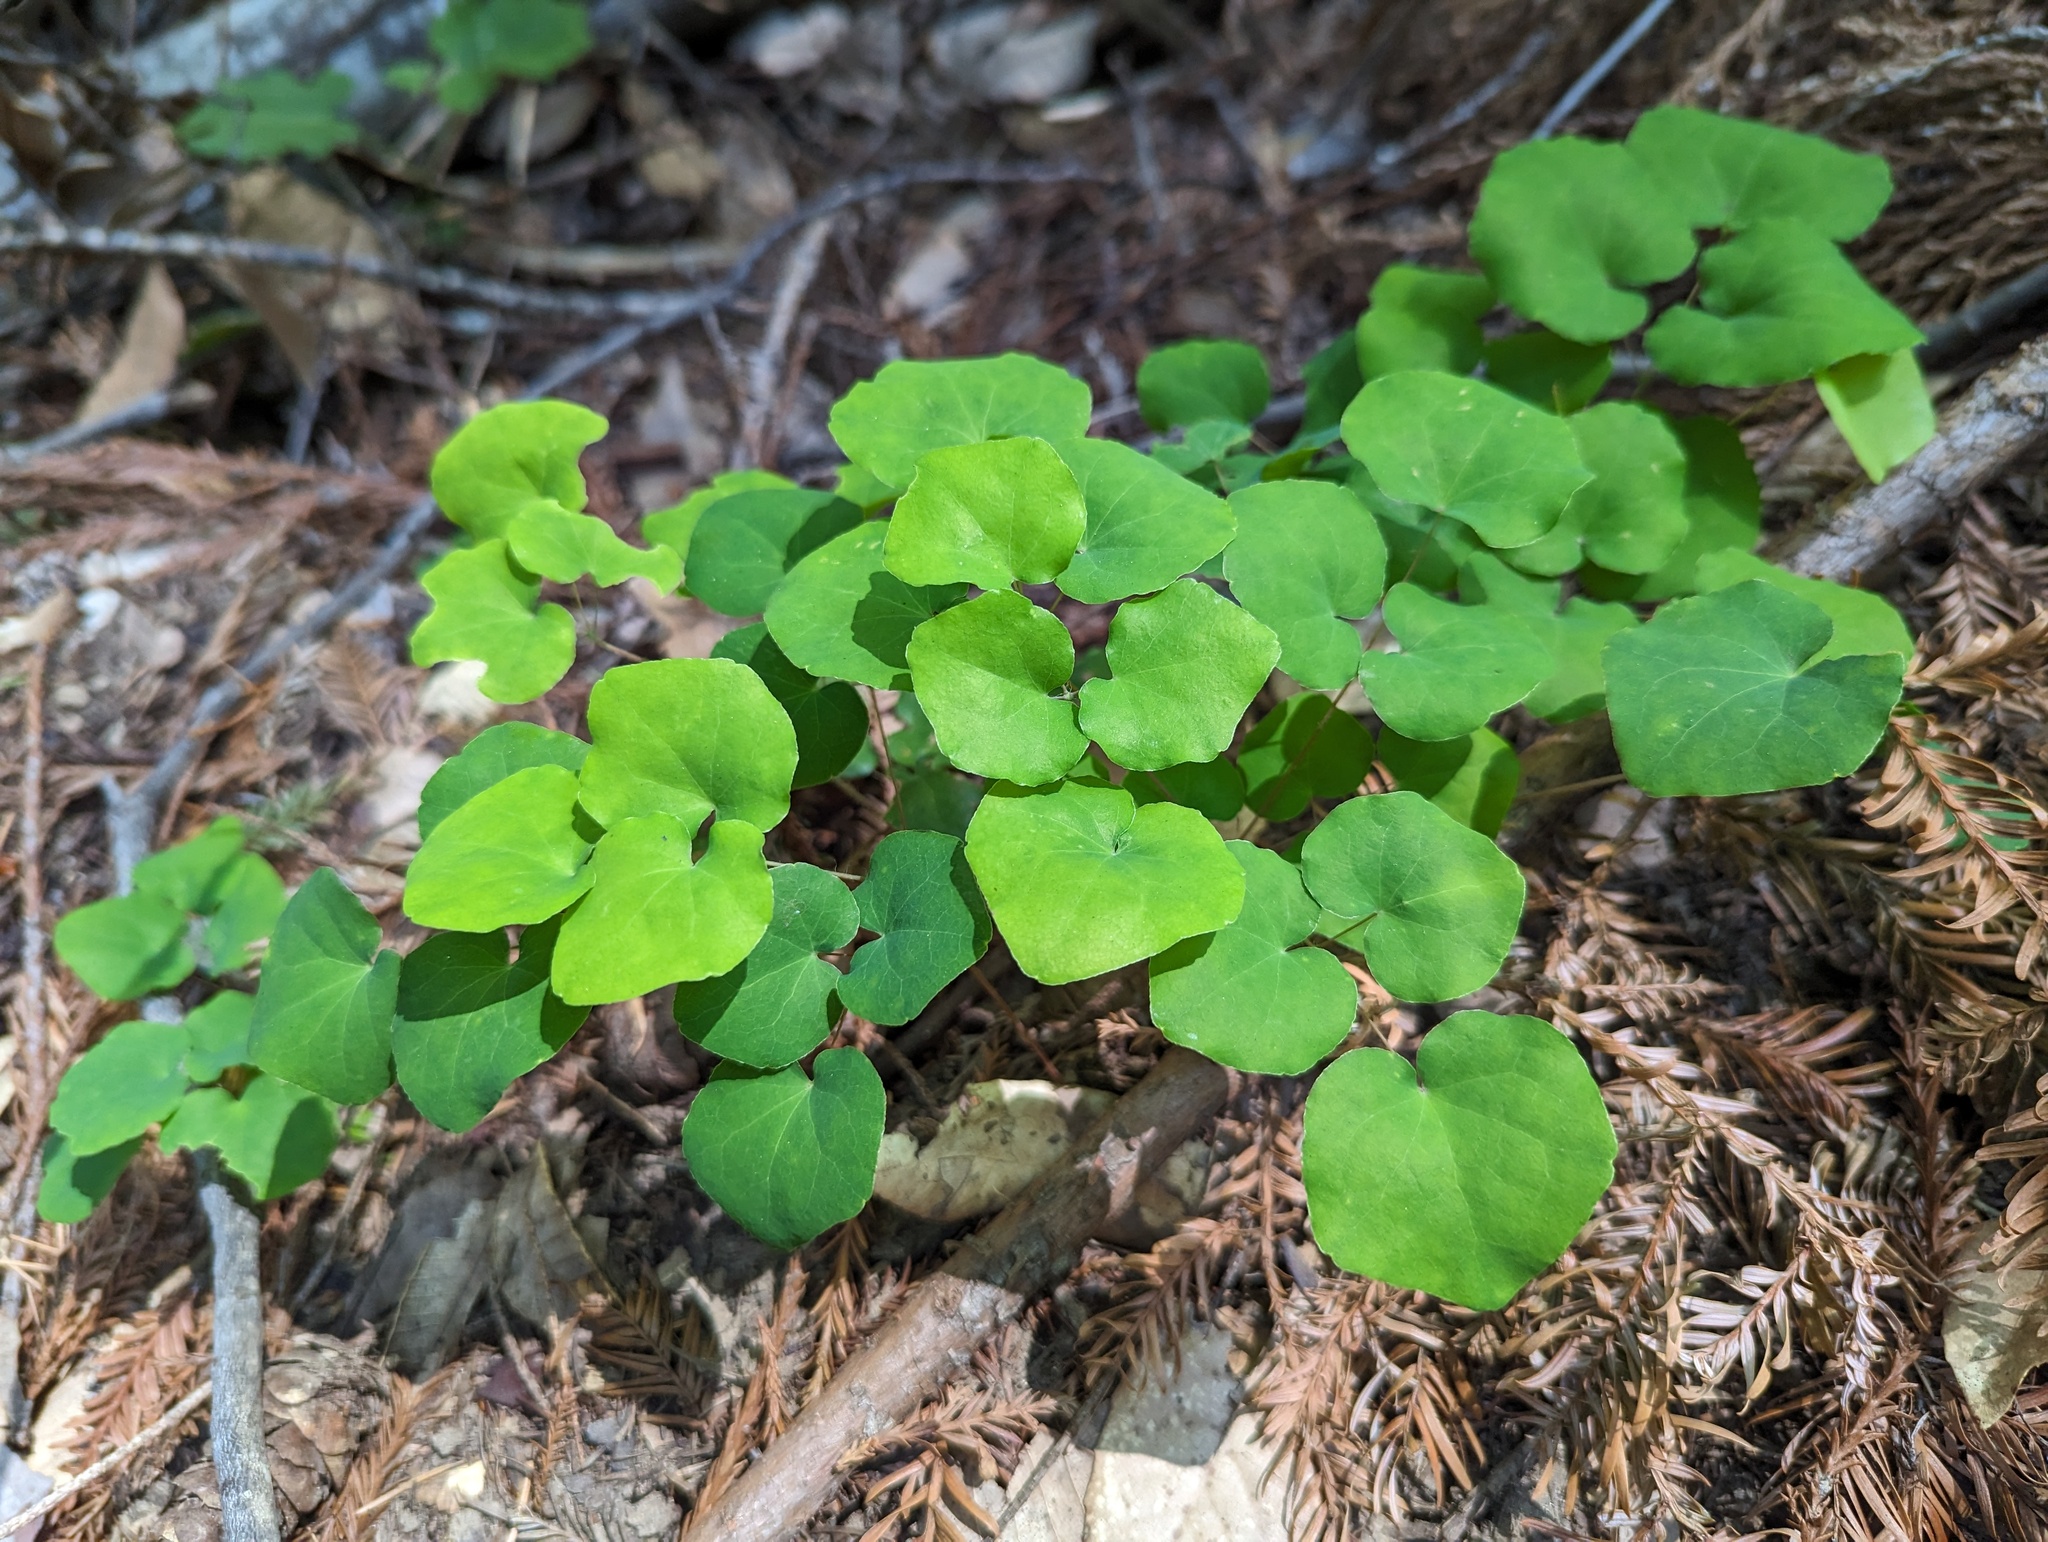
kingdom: Plantae
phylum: Tracheophyta
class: Magnoliopsida
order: Ranunculales
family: Berberidaceae
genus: Vancouveria
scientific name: Vancouveria planipetala
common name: Redwood-ivy
